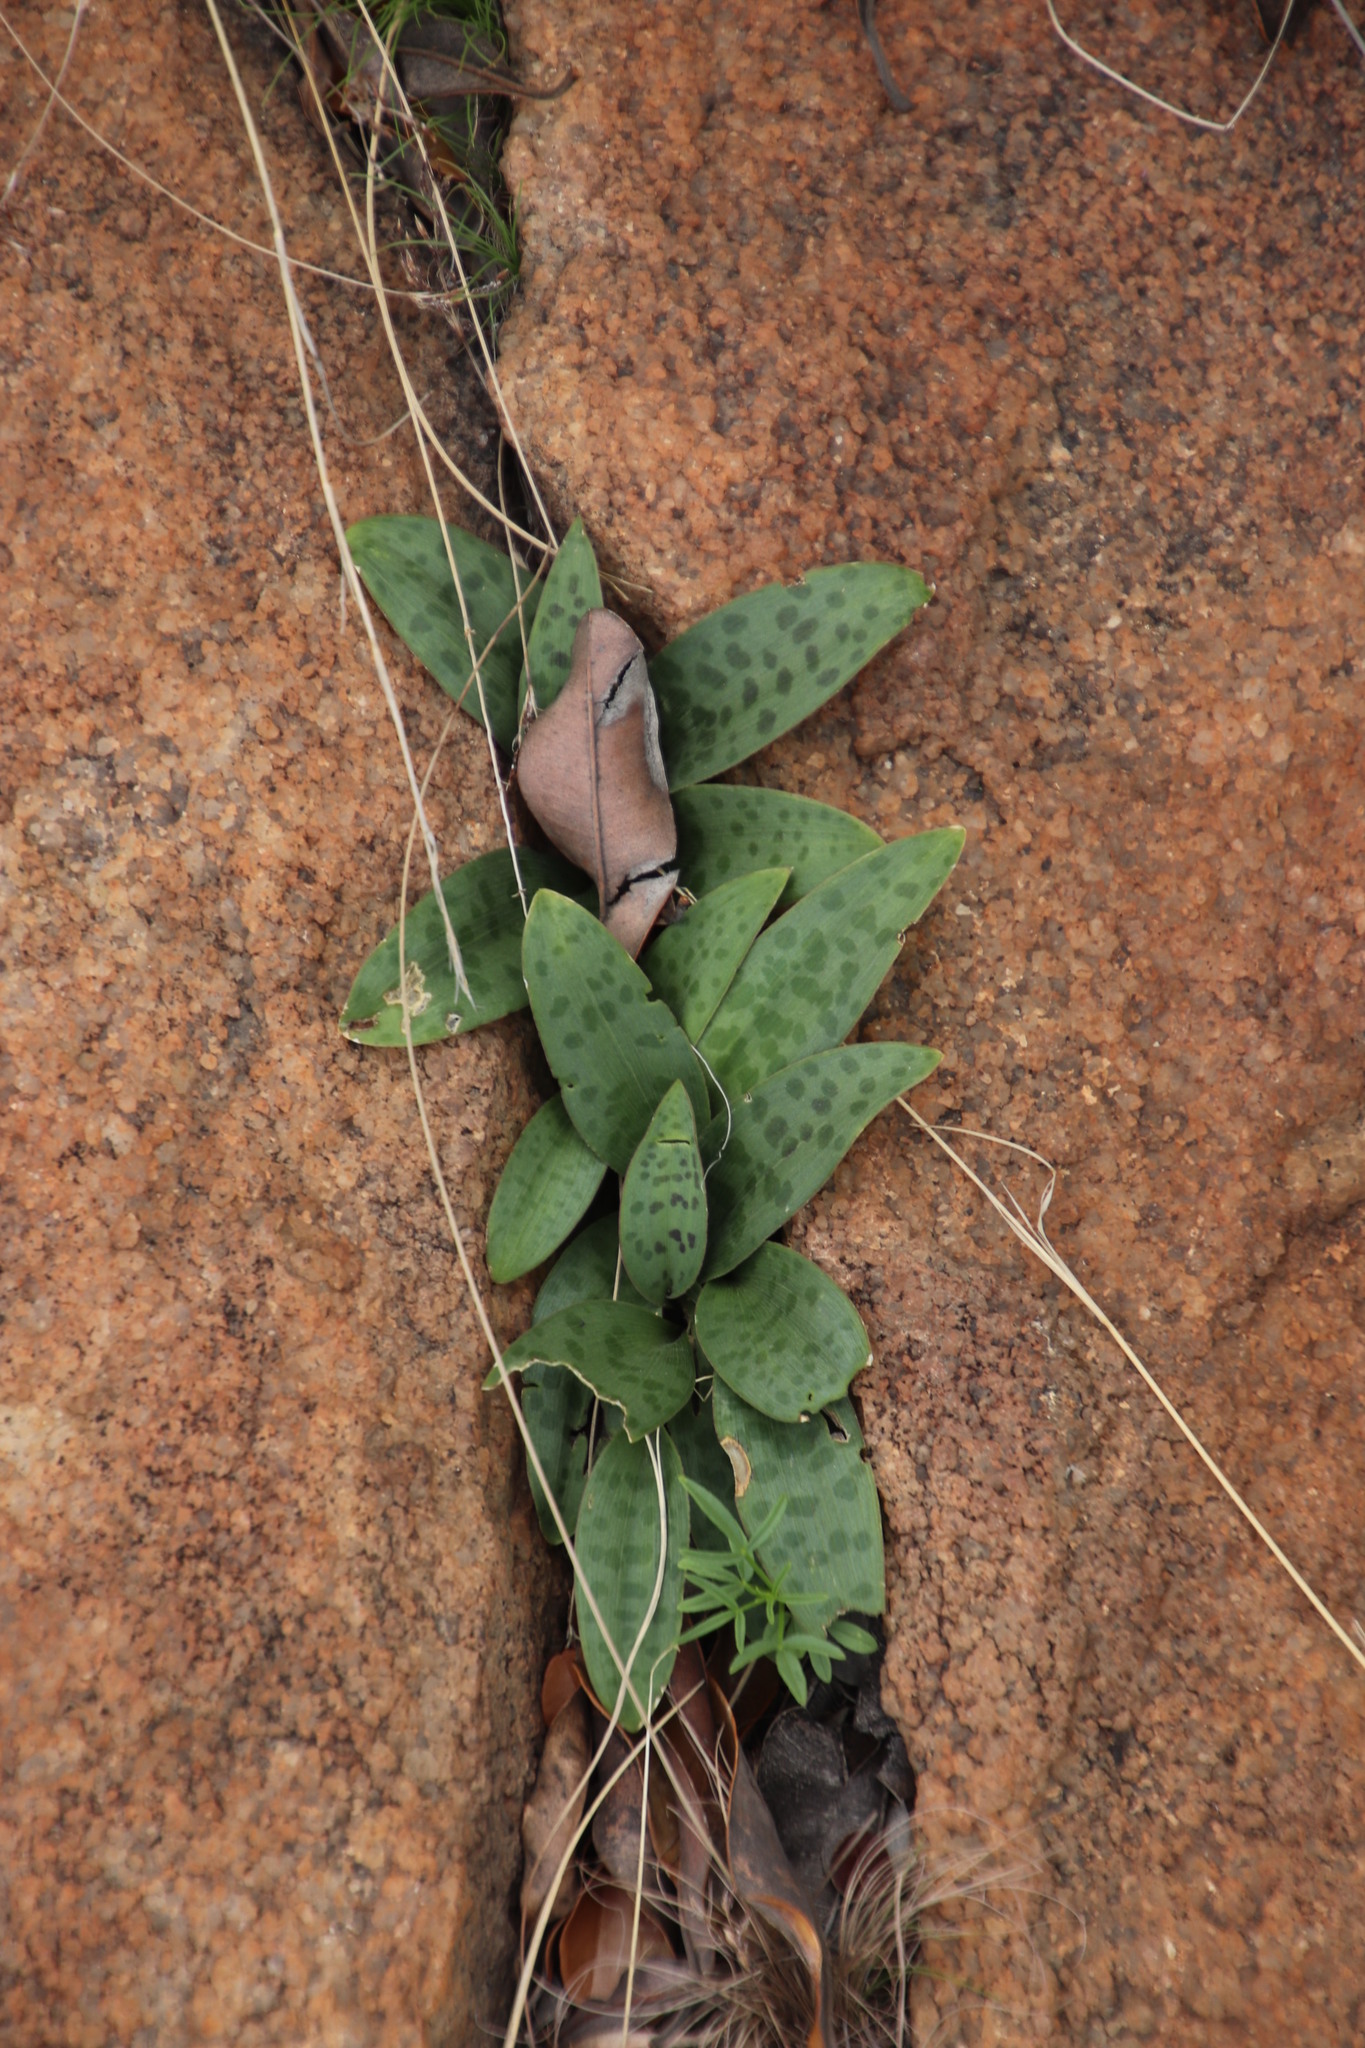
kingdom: Plantae
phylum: Tracheophyta
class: Liliopsida
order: Asparagales
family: Asparagaceae
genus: Drimiopsis
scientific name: Drimiopsis burkei
